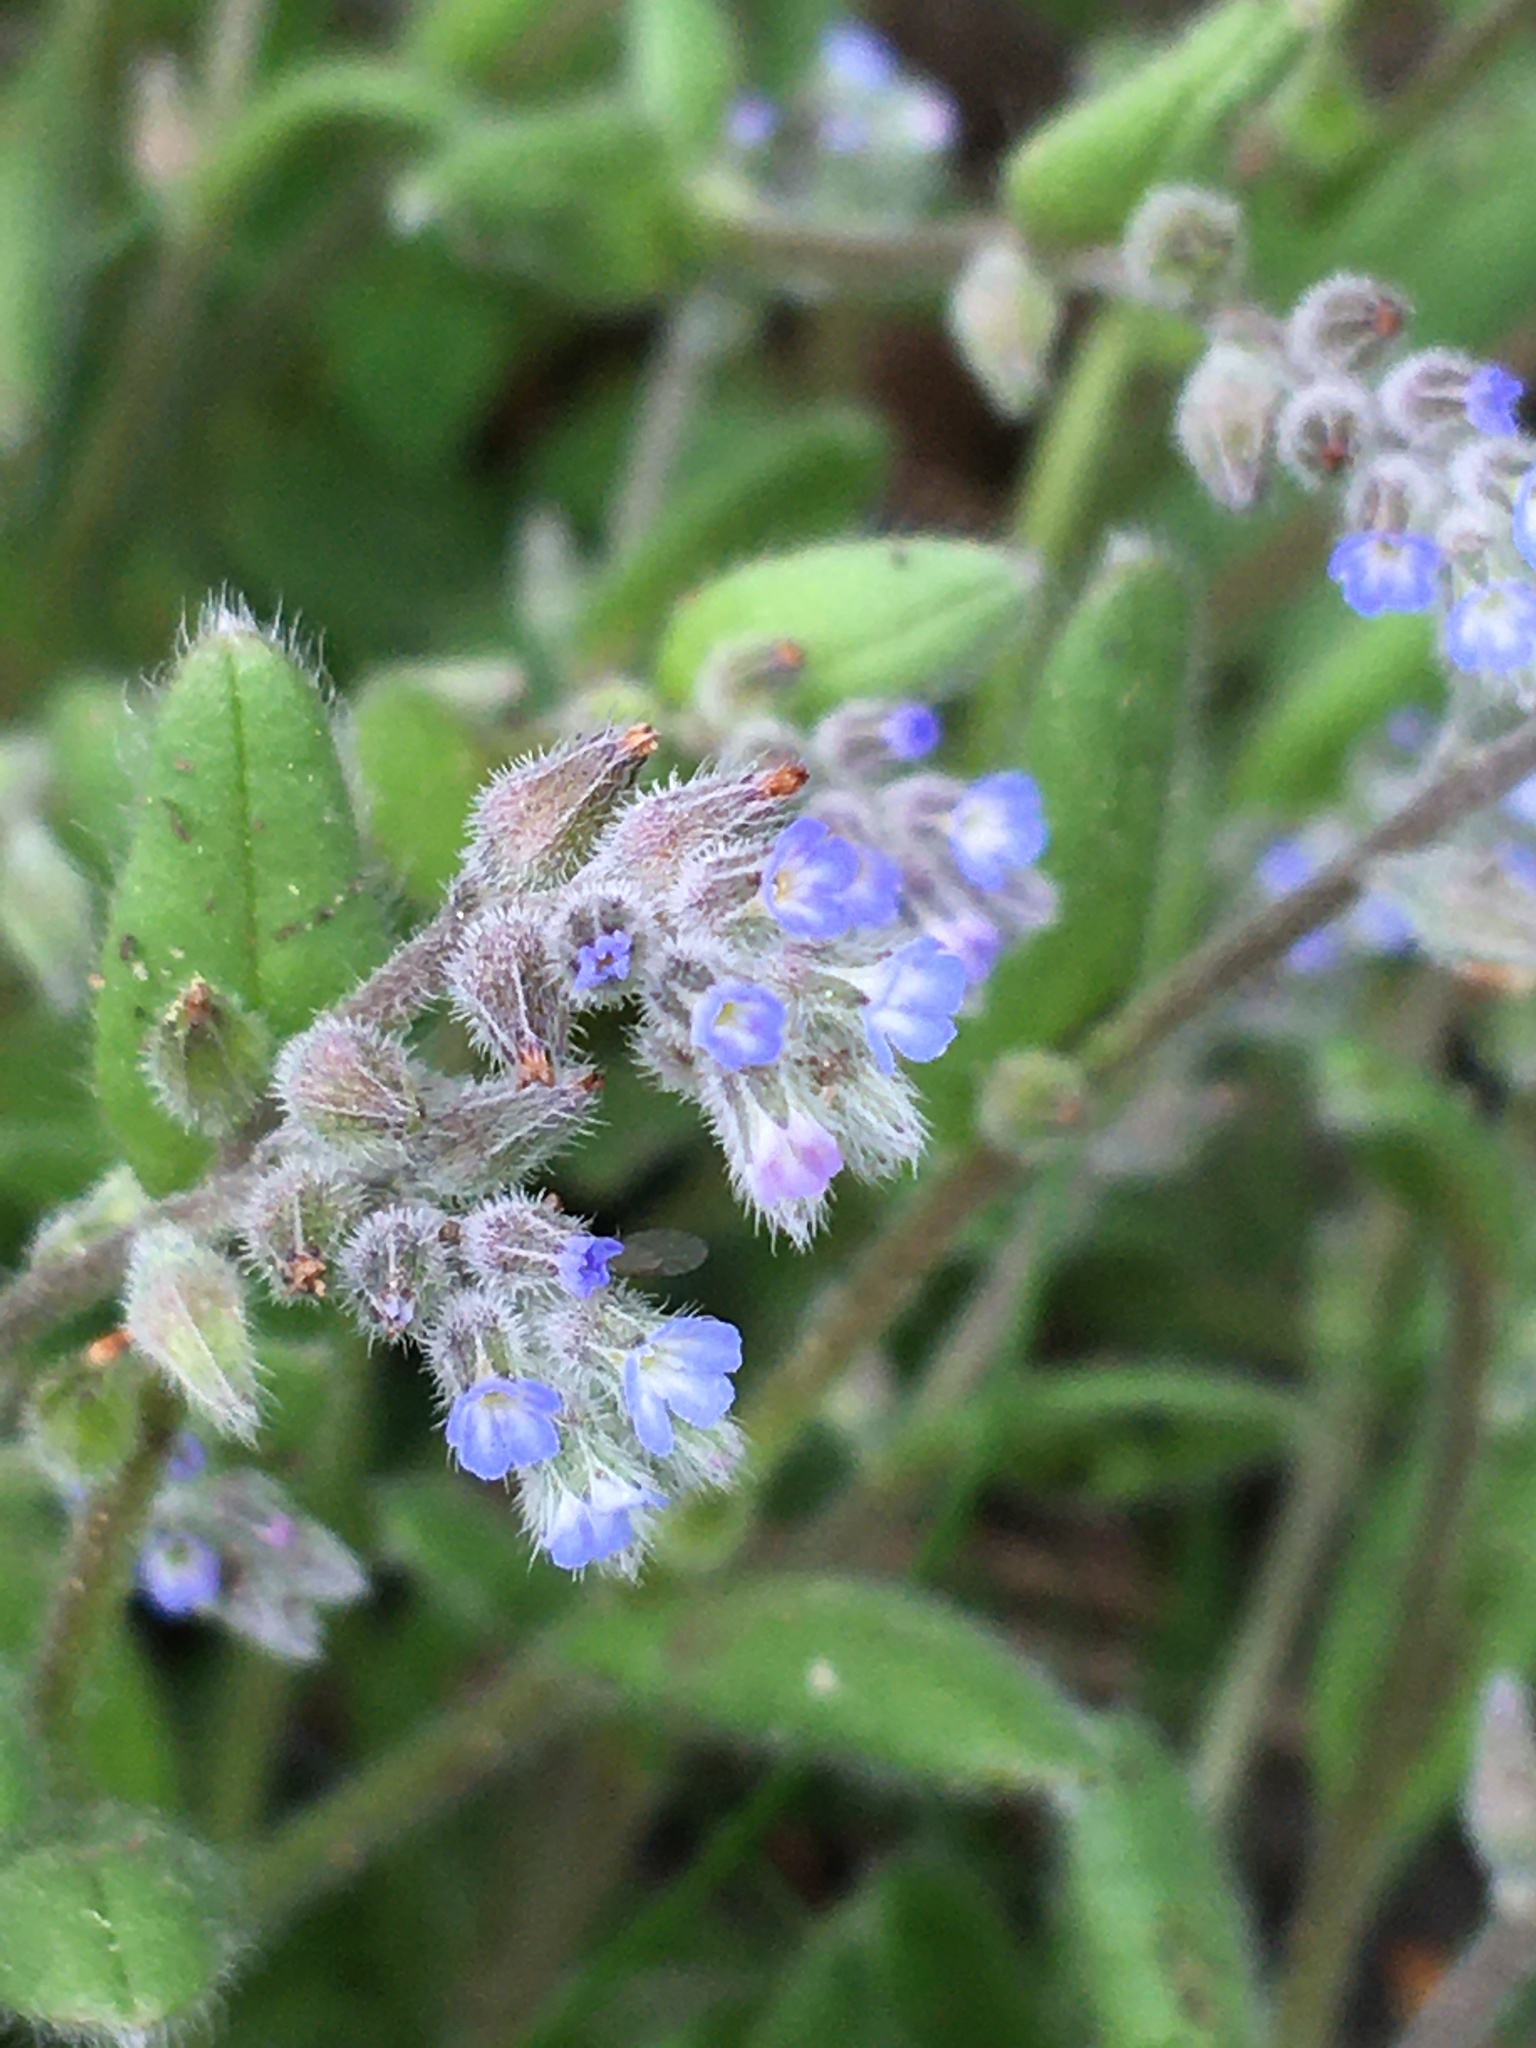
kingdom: Plantae
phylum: Tracheophyta
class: Magnoliopsida
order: Boraginales
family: Boraginaceae
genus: Myosotis
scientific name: Myosotis stricta
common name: Strict forget-me-not
